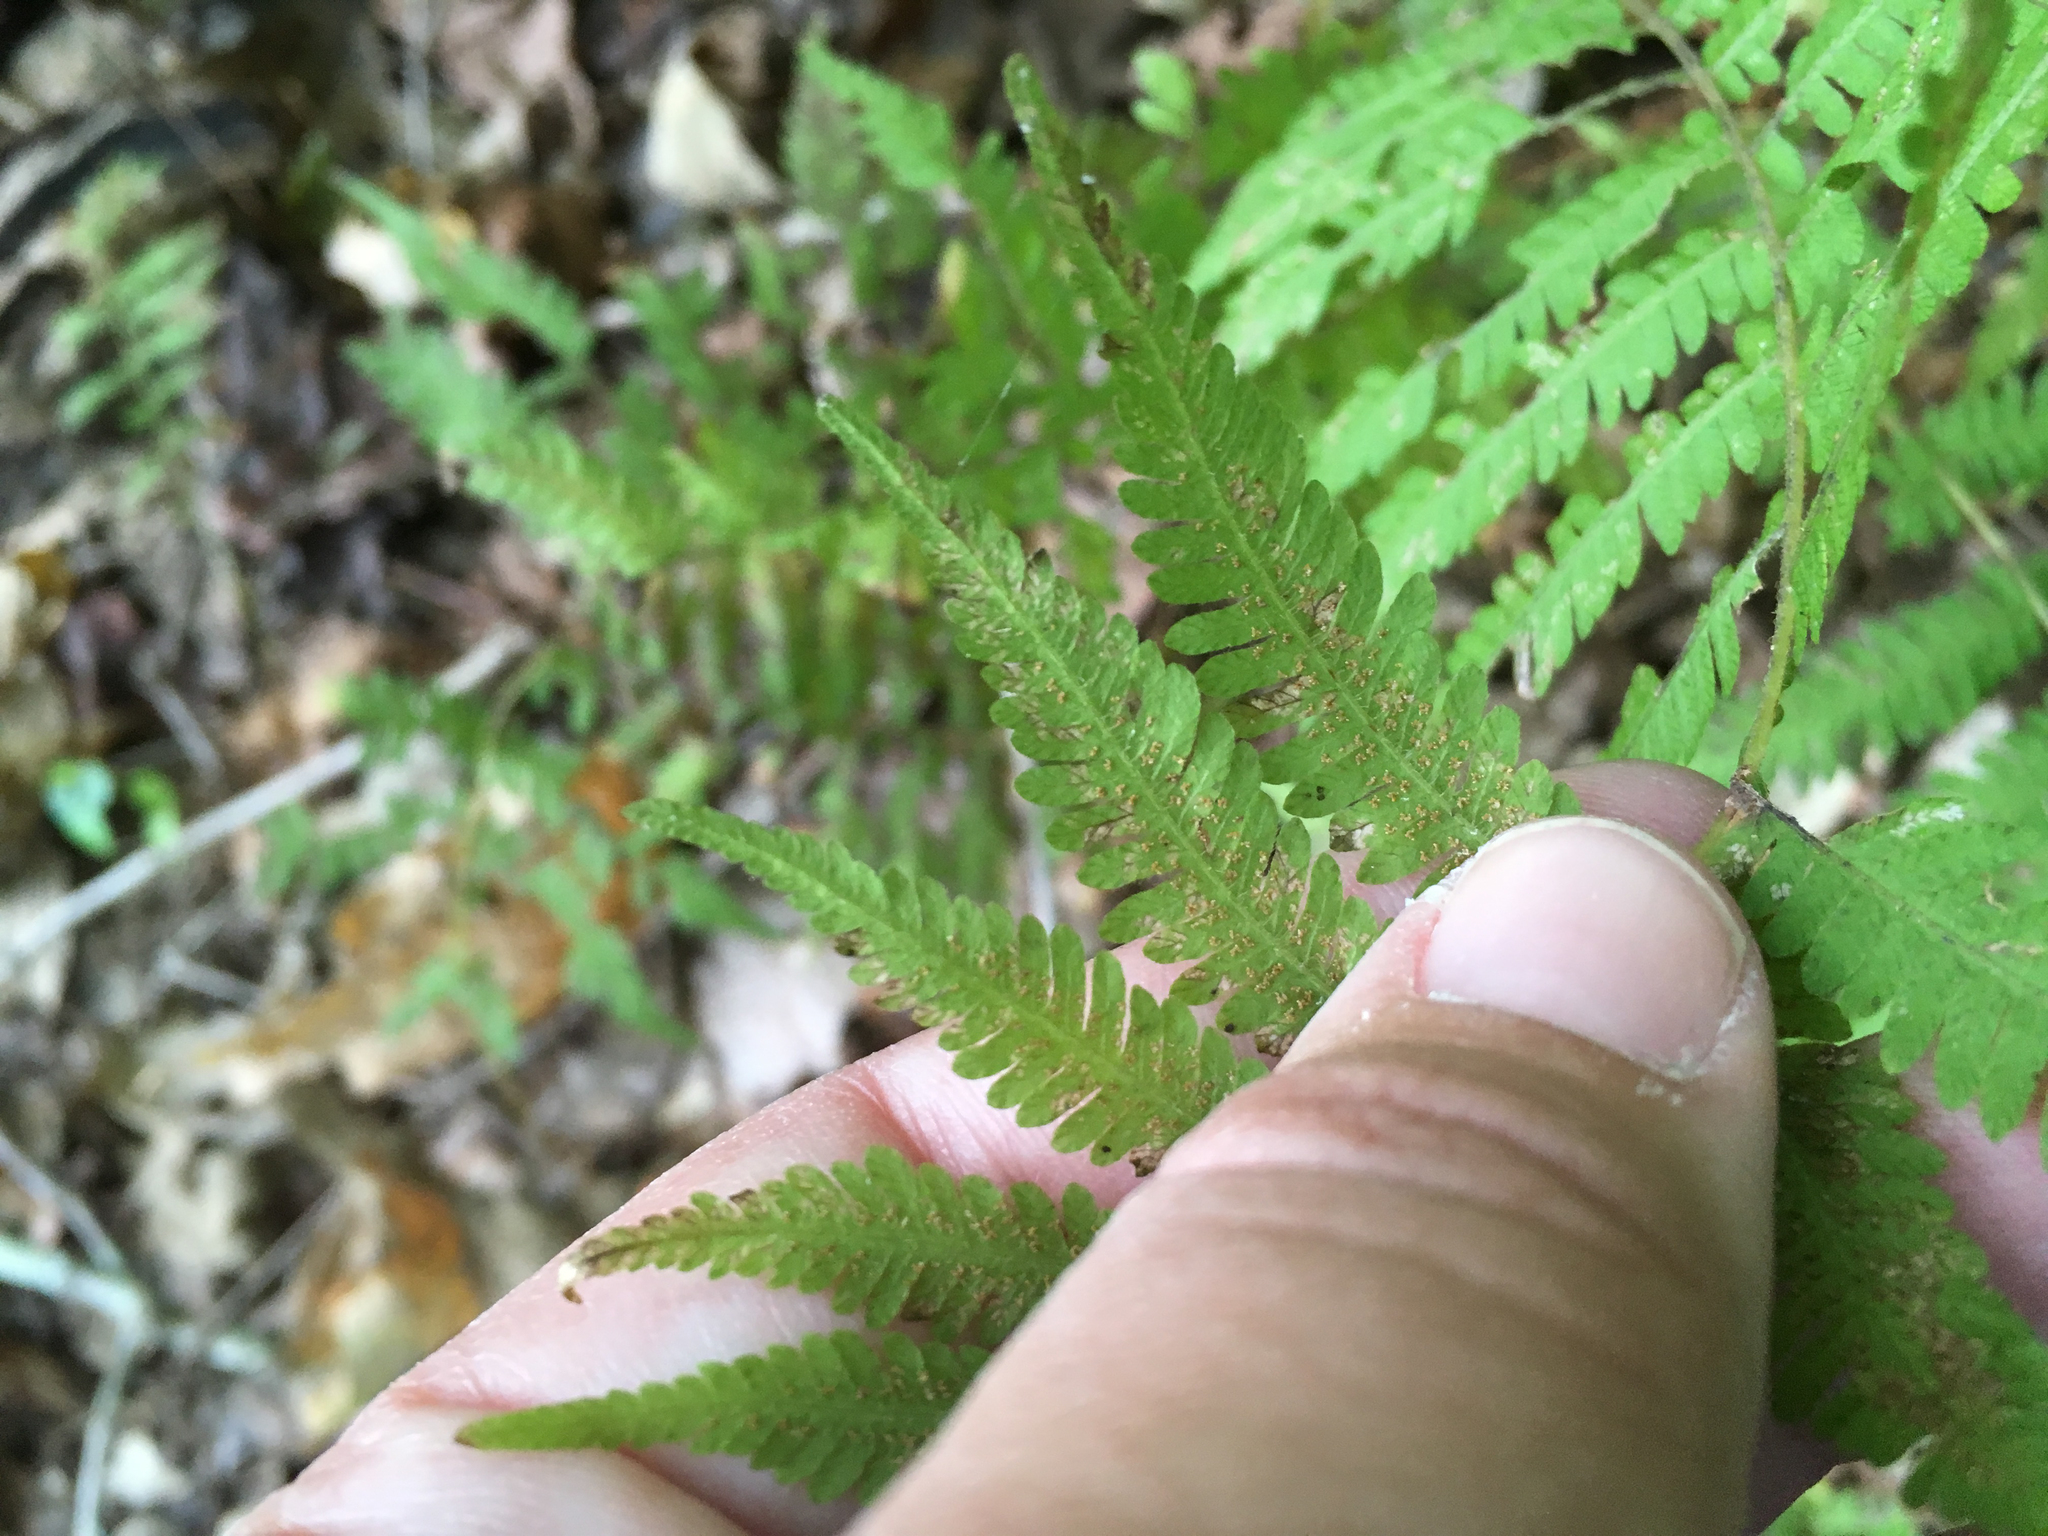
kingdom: Plantae
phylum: Tracheophyta
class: Polypodiopsida
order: Polypodiales
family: Thelypteridaceae
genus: Amauropelta
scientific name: Amauropelta noveboracensis
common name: New york fern
